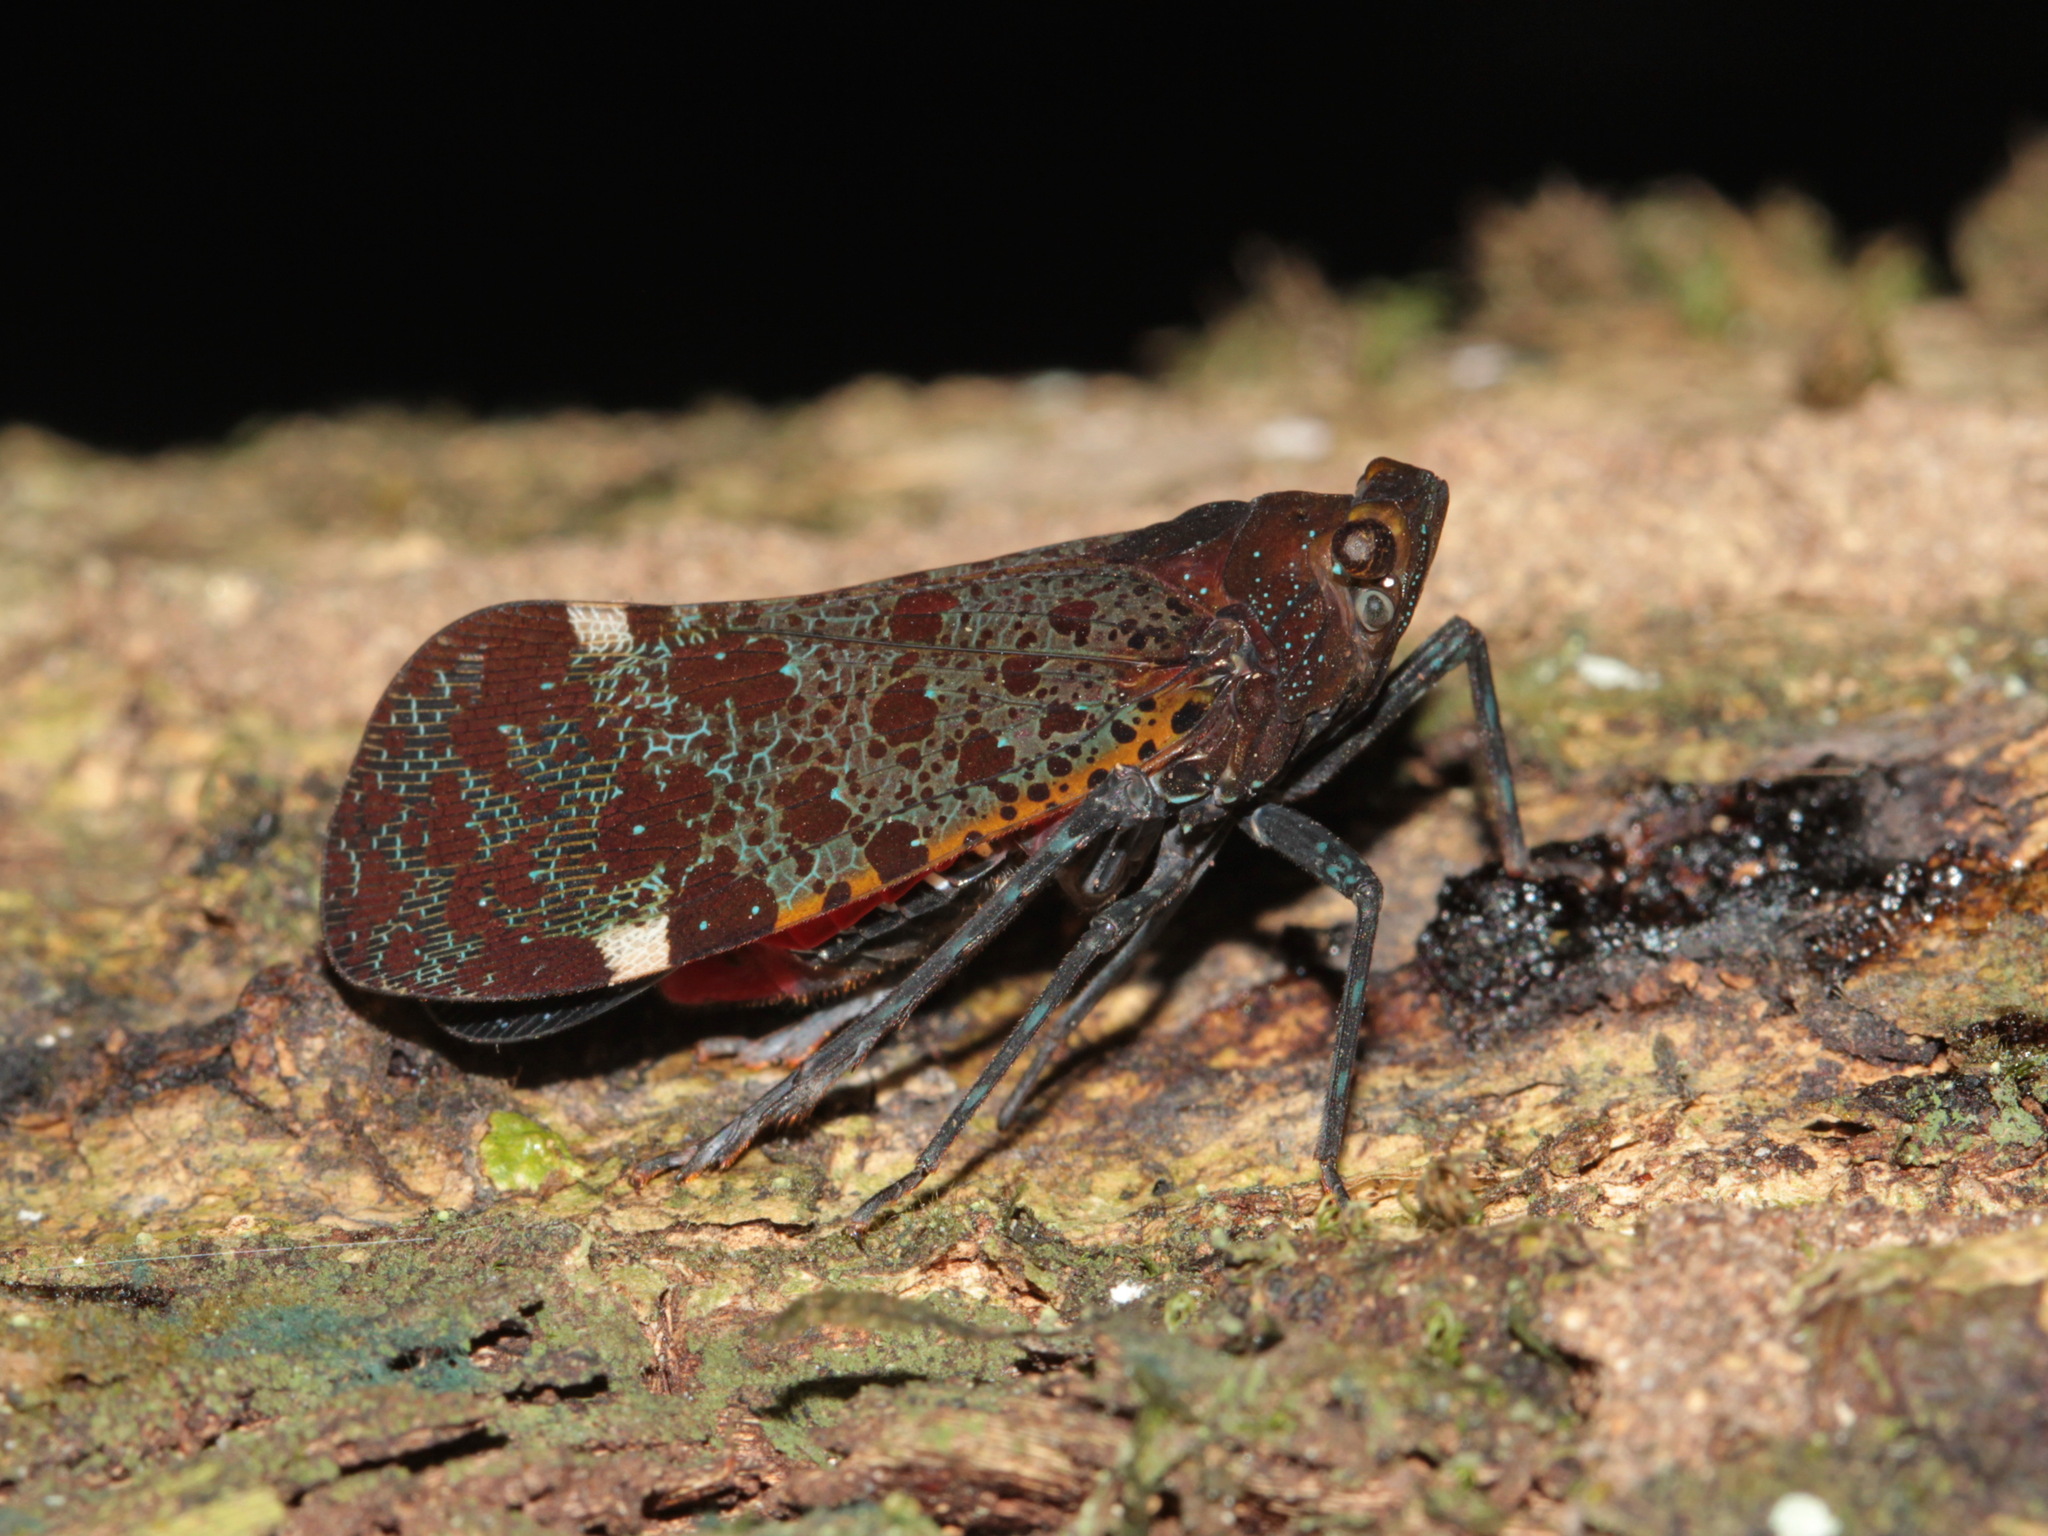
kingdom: Animalia
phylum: Arthropoda
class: Insecta
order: Hemiptera
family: Fulgoridae
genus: Penthicodes
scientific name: Penthicodes variegata
